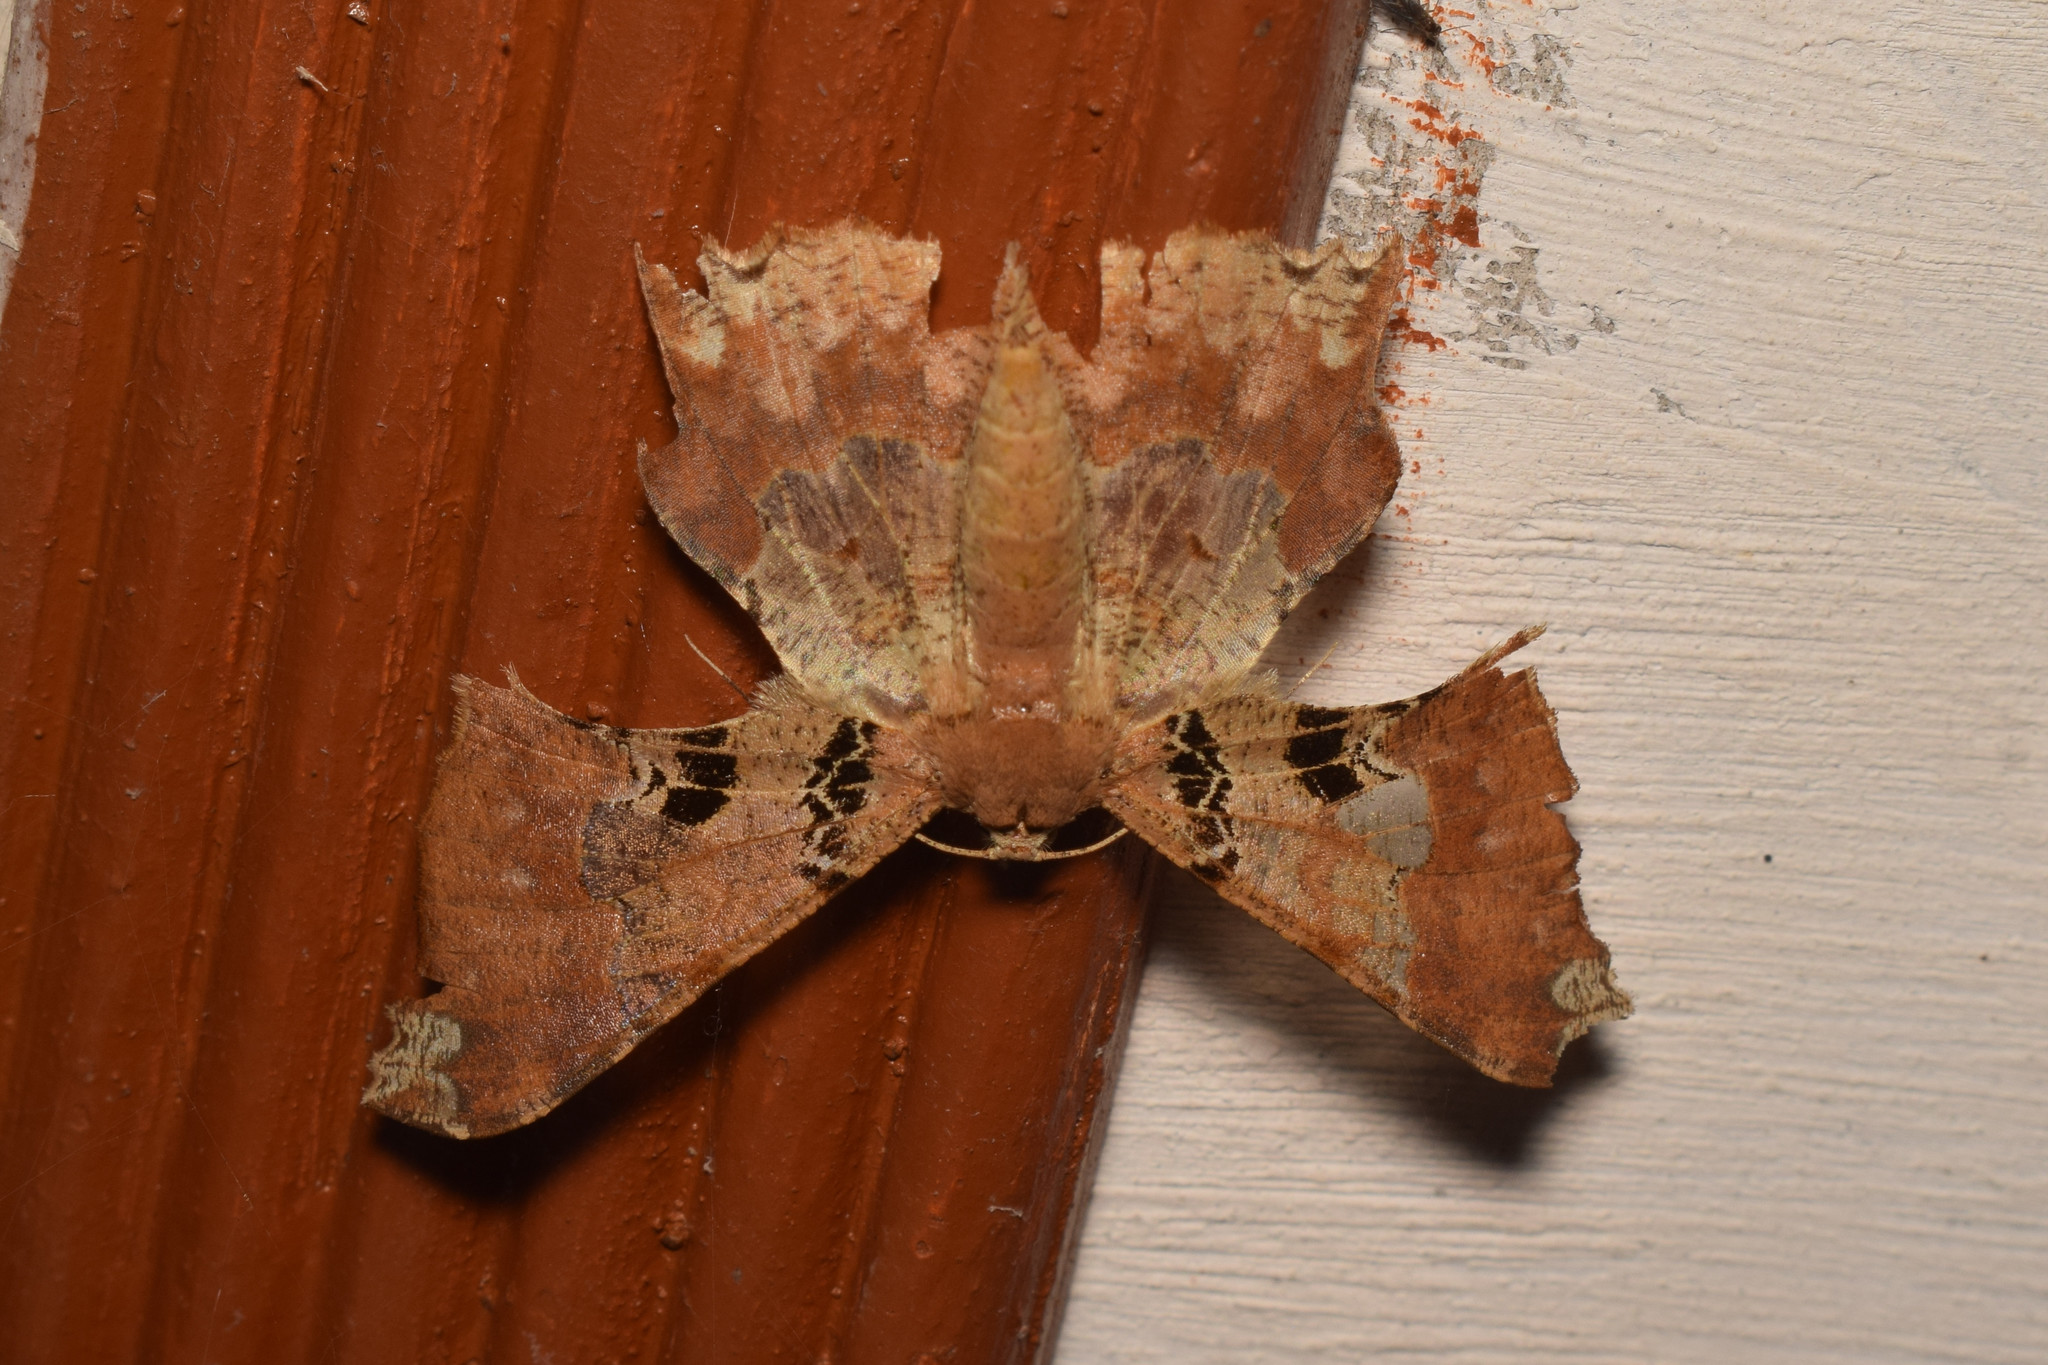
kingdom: Animalia
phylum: Arthropoda
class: Insecta
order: Lepidoptera
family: Geometridae
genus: Krananda
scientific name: Krananda lucidaria
